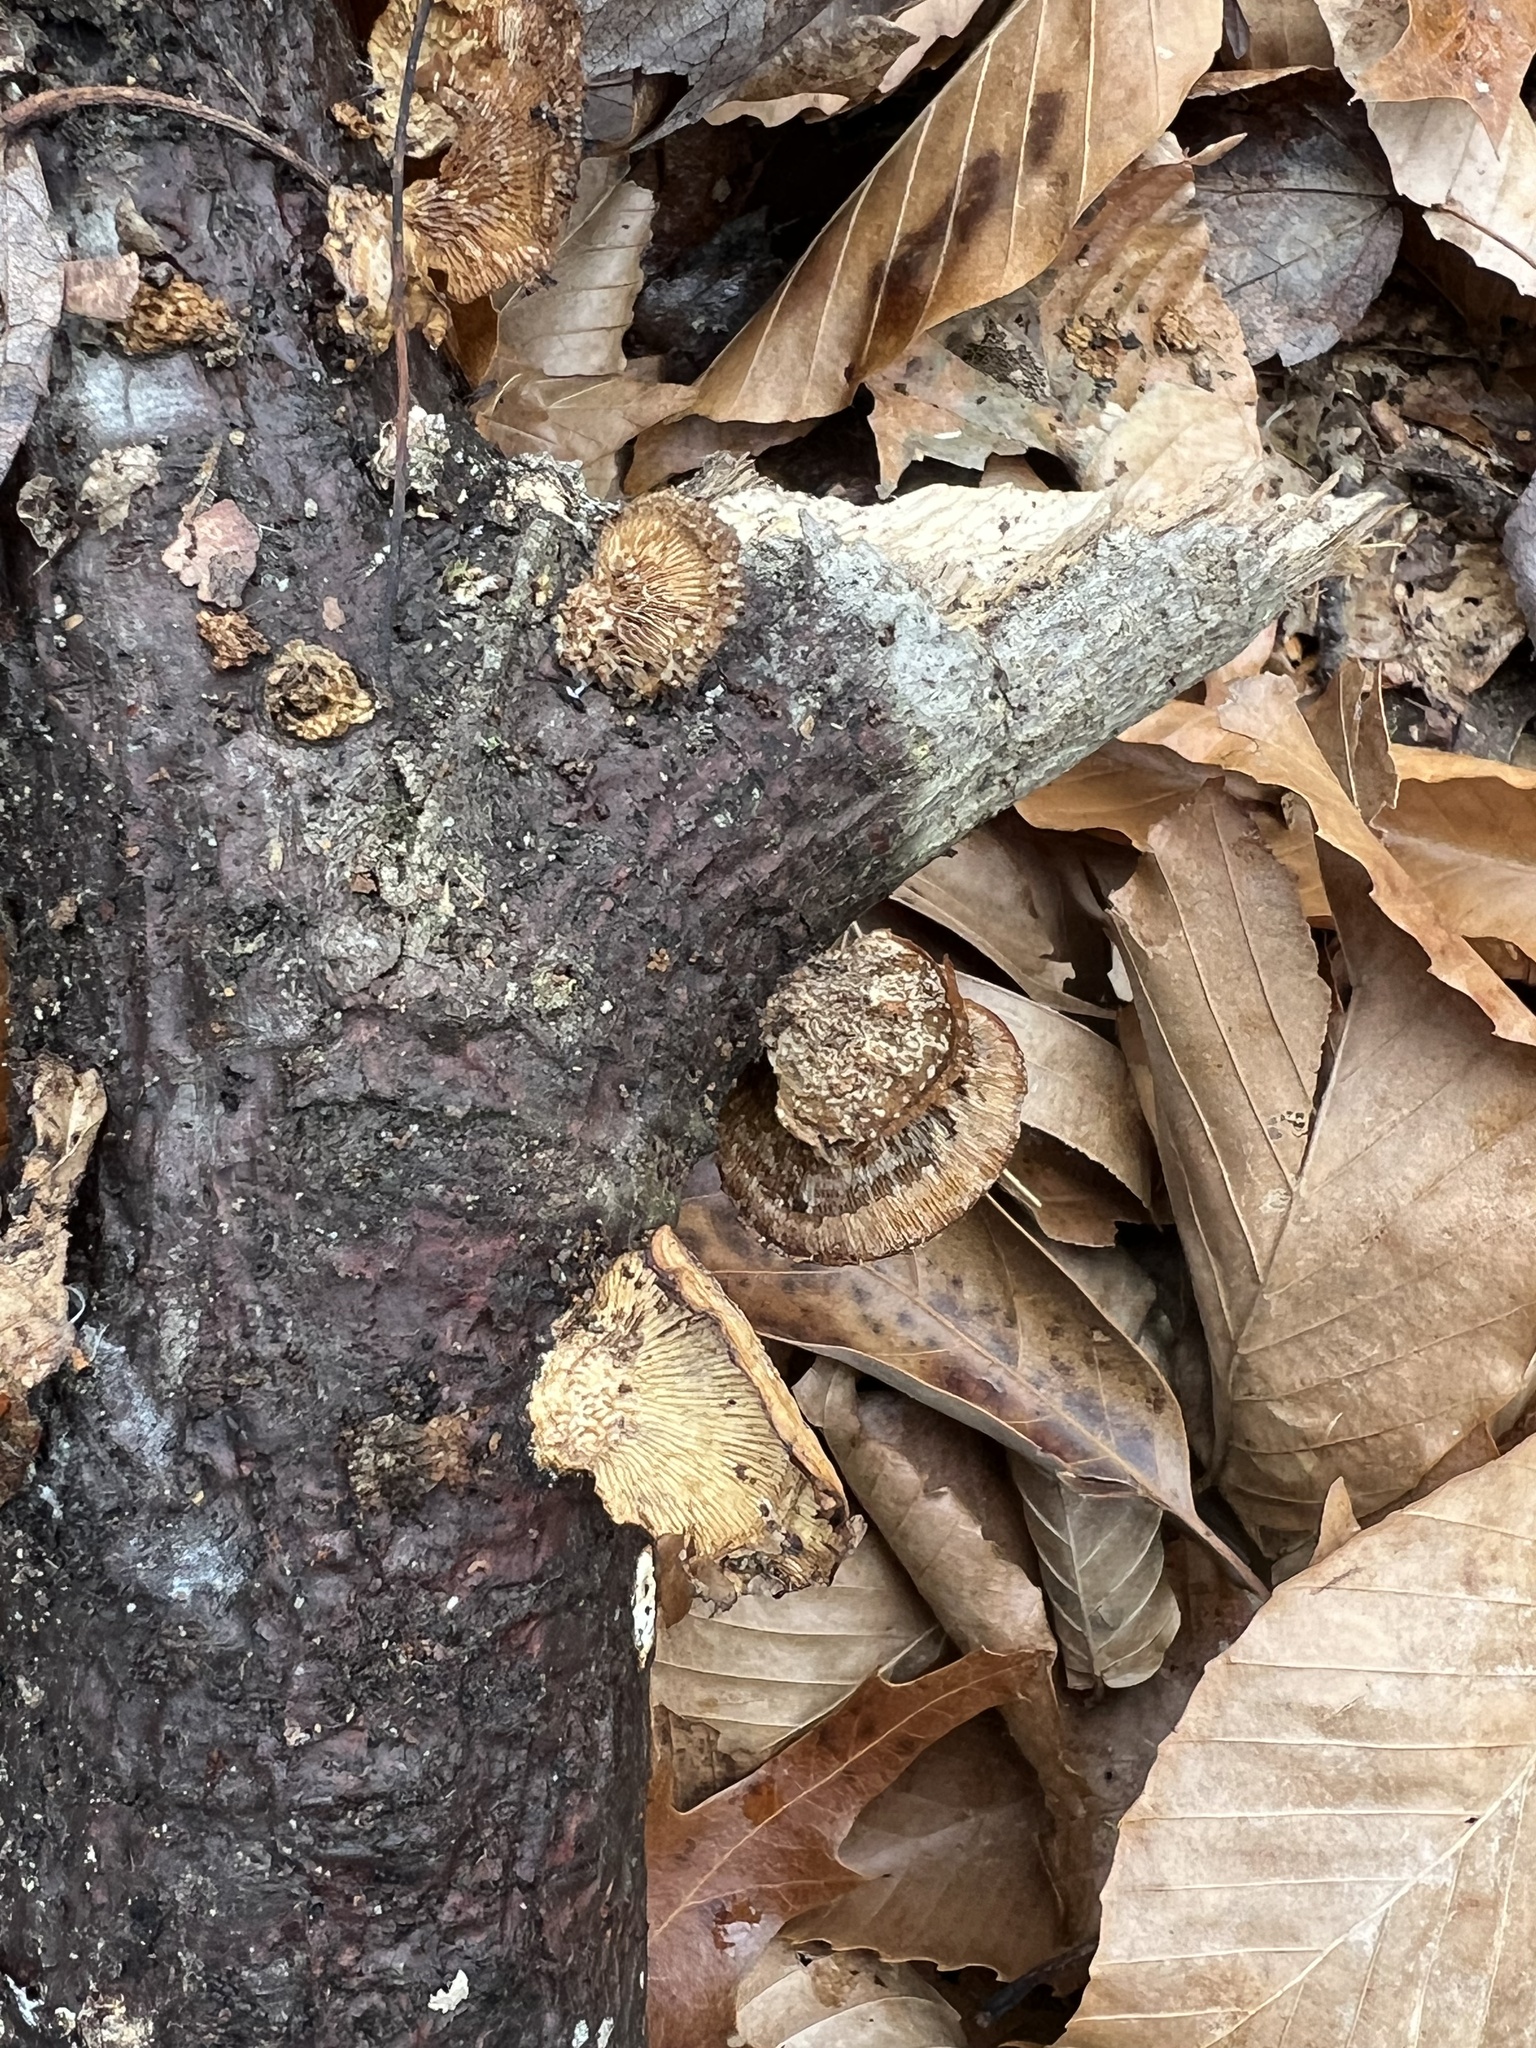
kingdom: Fungi
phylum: Basidiomycota
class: Agaricomycetes
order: Polyporales
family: Polyporaceae
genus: Daedaleopsis
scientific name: Daedaleopsis septentrionalis
